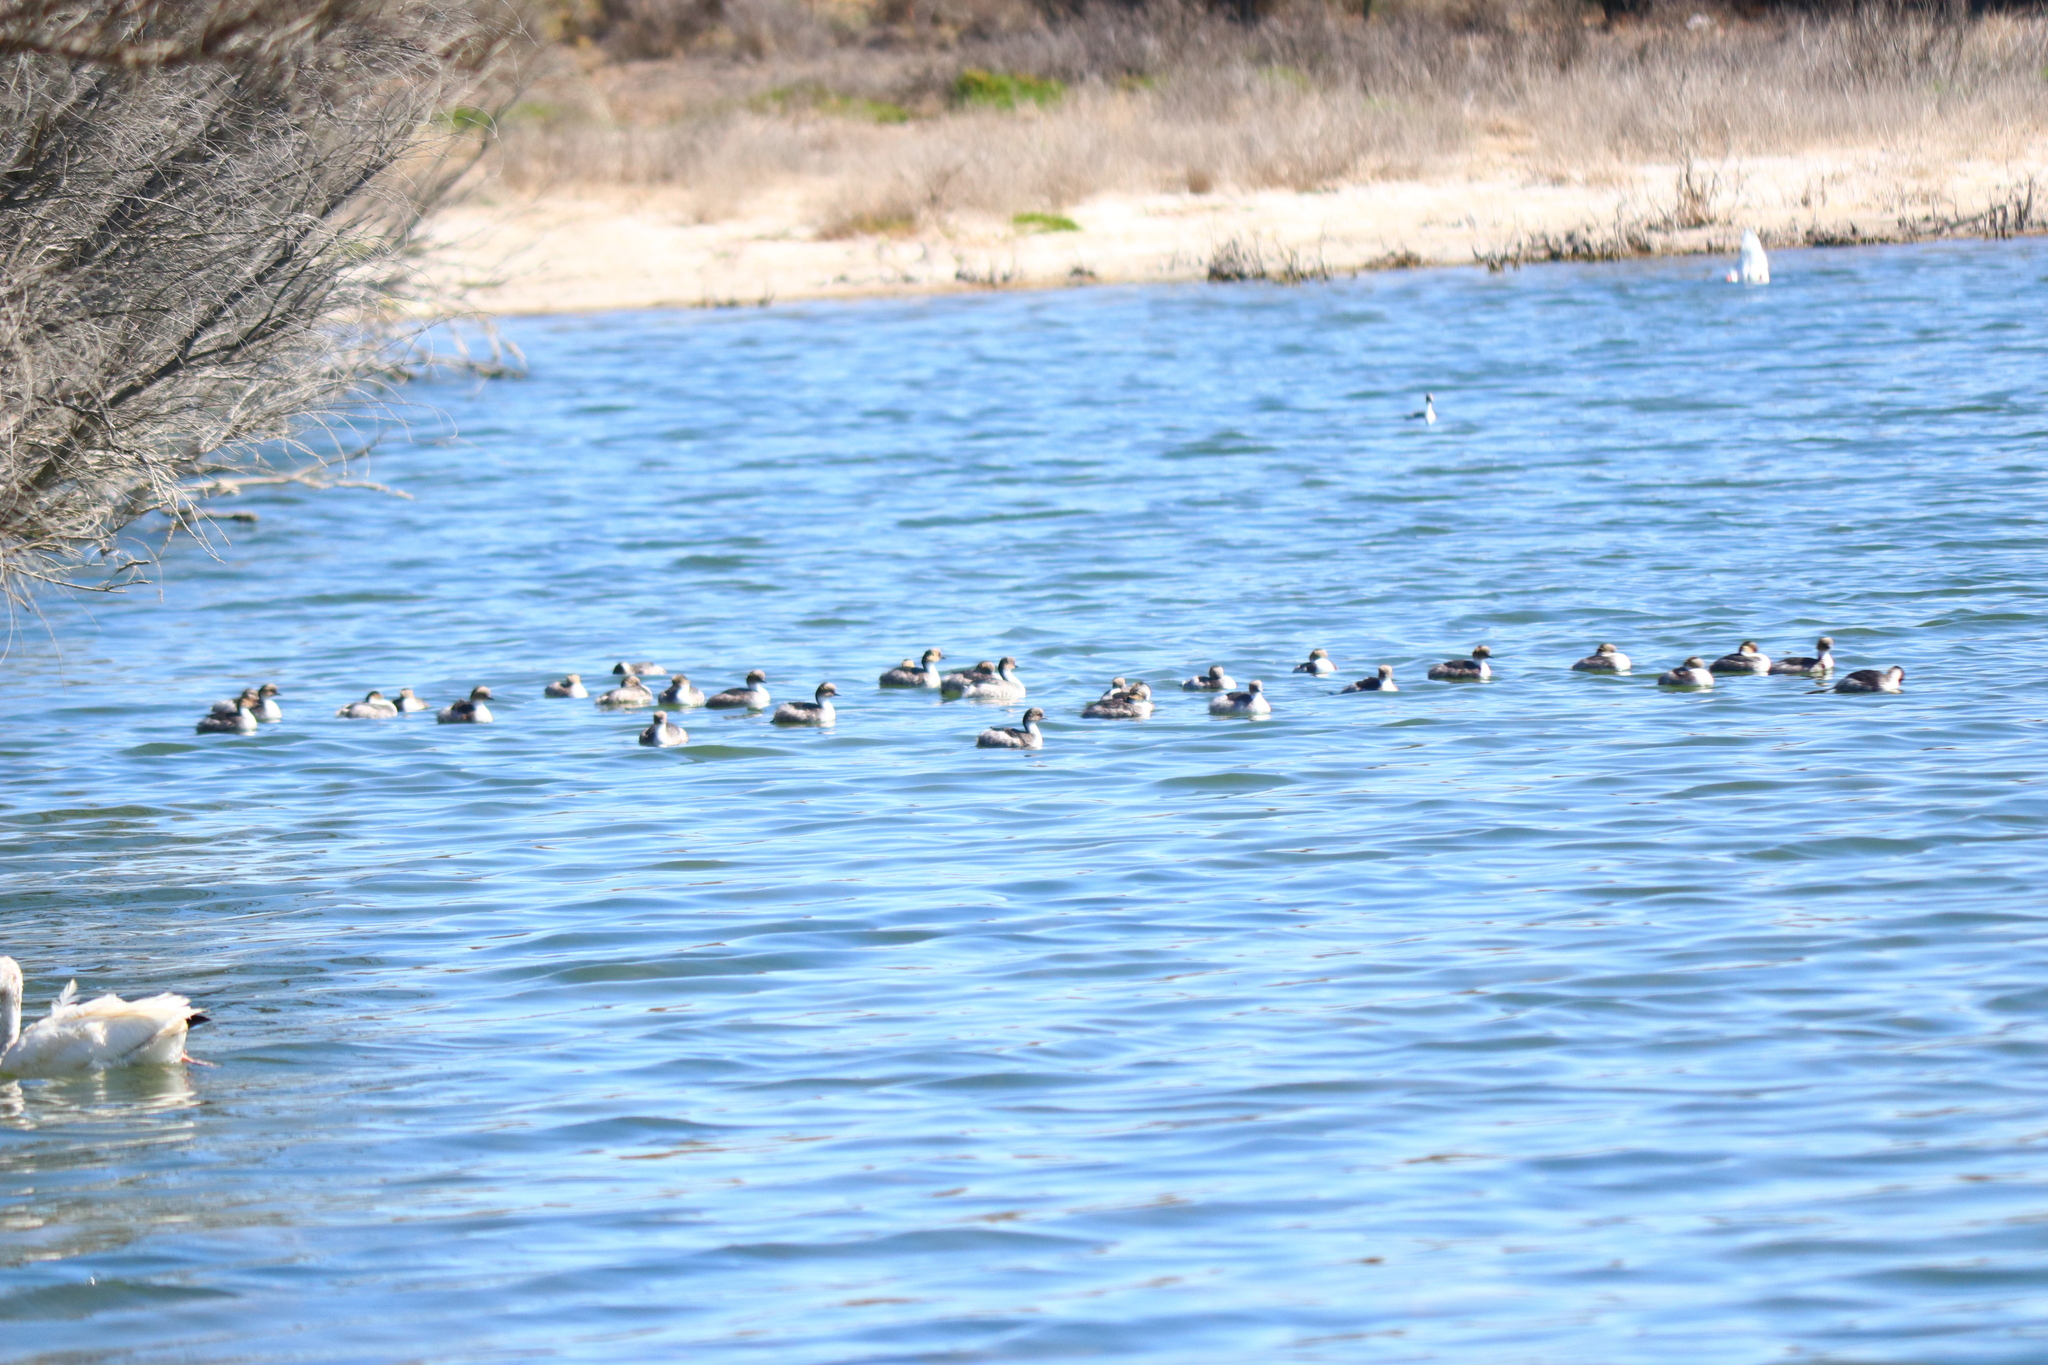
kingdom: Animalia
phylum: Chordata
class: Aves
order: Podicipediformes
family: Podicipedidae
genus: Podiceps
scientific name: Podiceps occipitalis
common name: Silvery grebe
